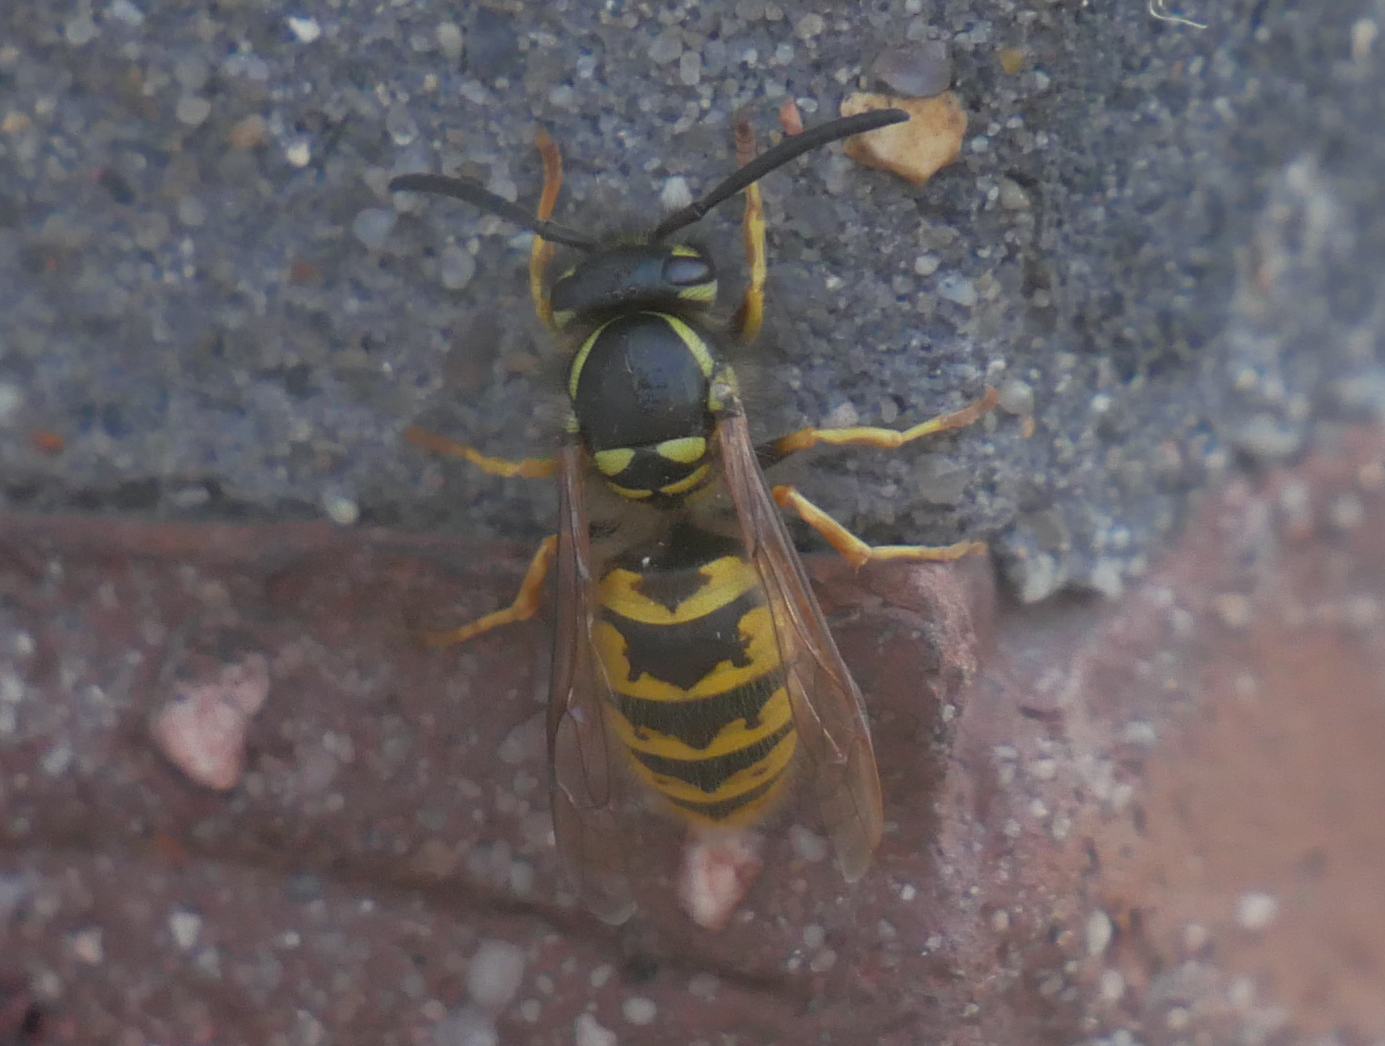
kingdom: Animalia
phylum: Arthropoda
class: Insecta
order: Hymenoptera
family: Vespidae
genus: Vespula
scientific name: Vespula vulgaris
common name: Common wasp
